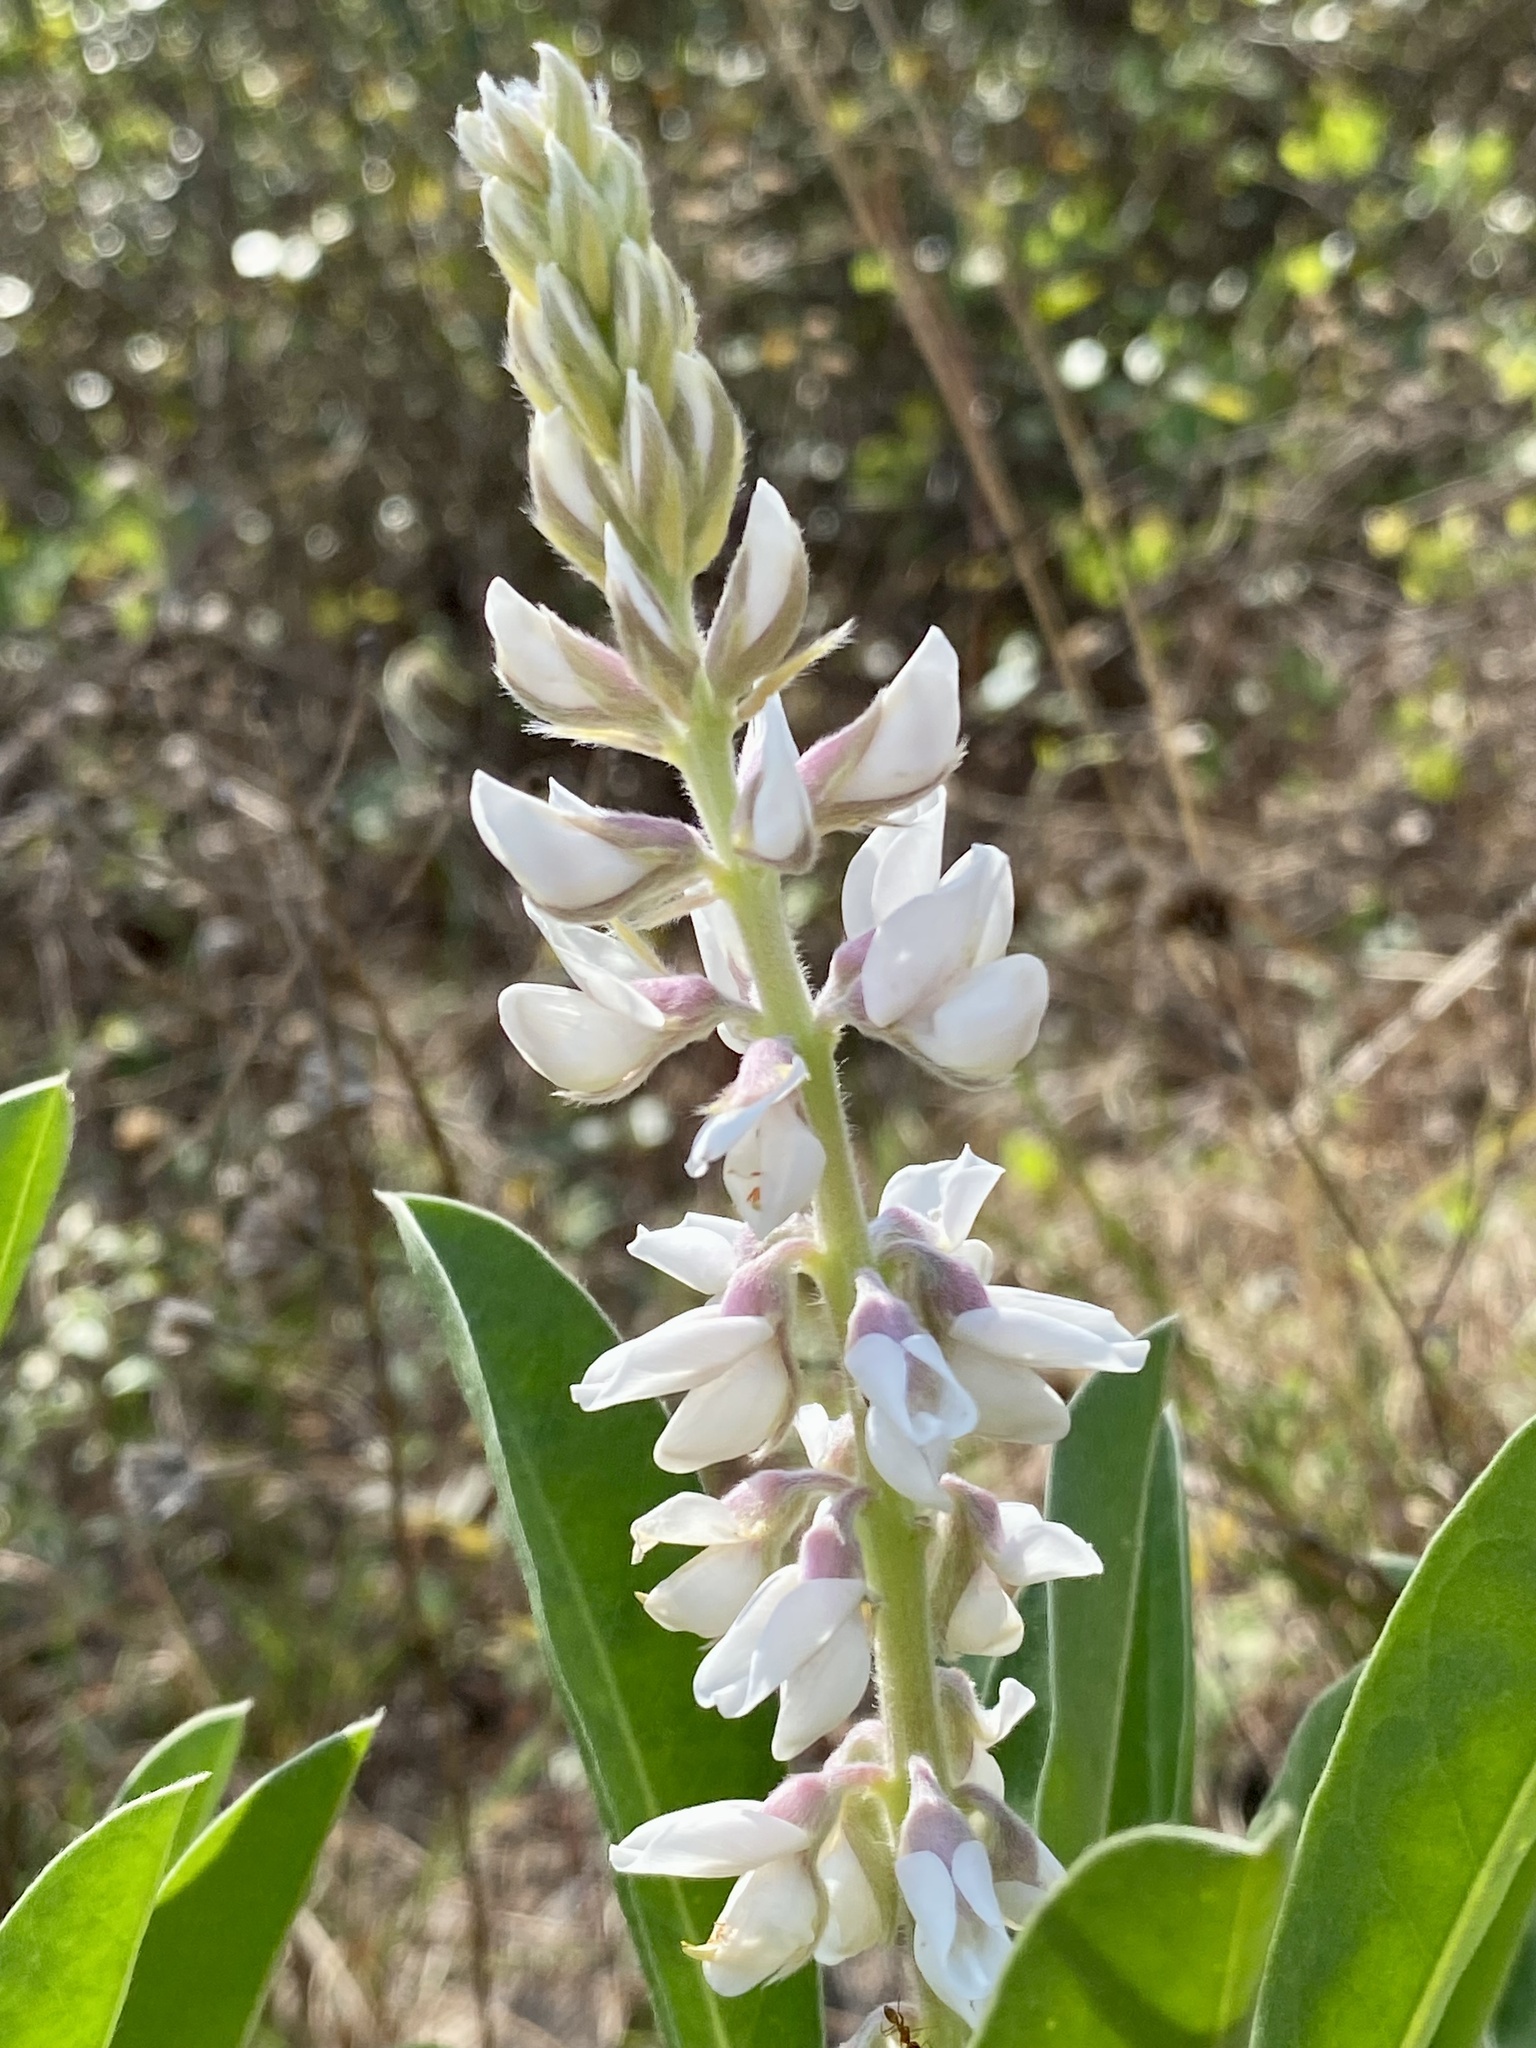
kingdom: Plantae
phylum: Tracheophyta
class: Magnoliopsida
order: Fabales
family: Fabaceae
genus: Lupinus
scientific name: Lupinus
